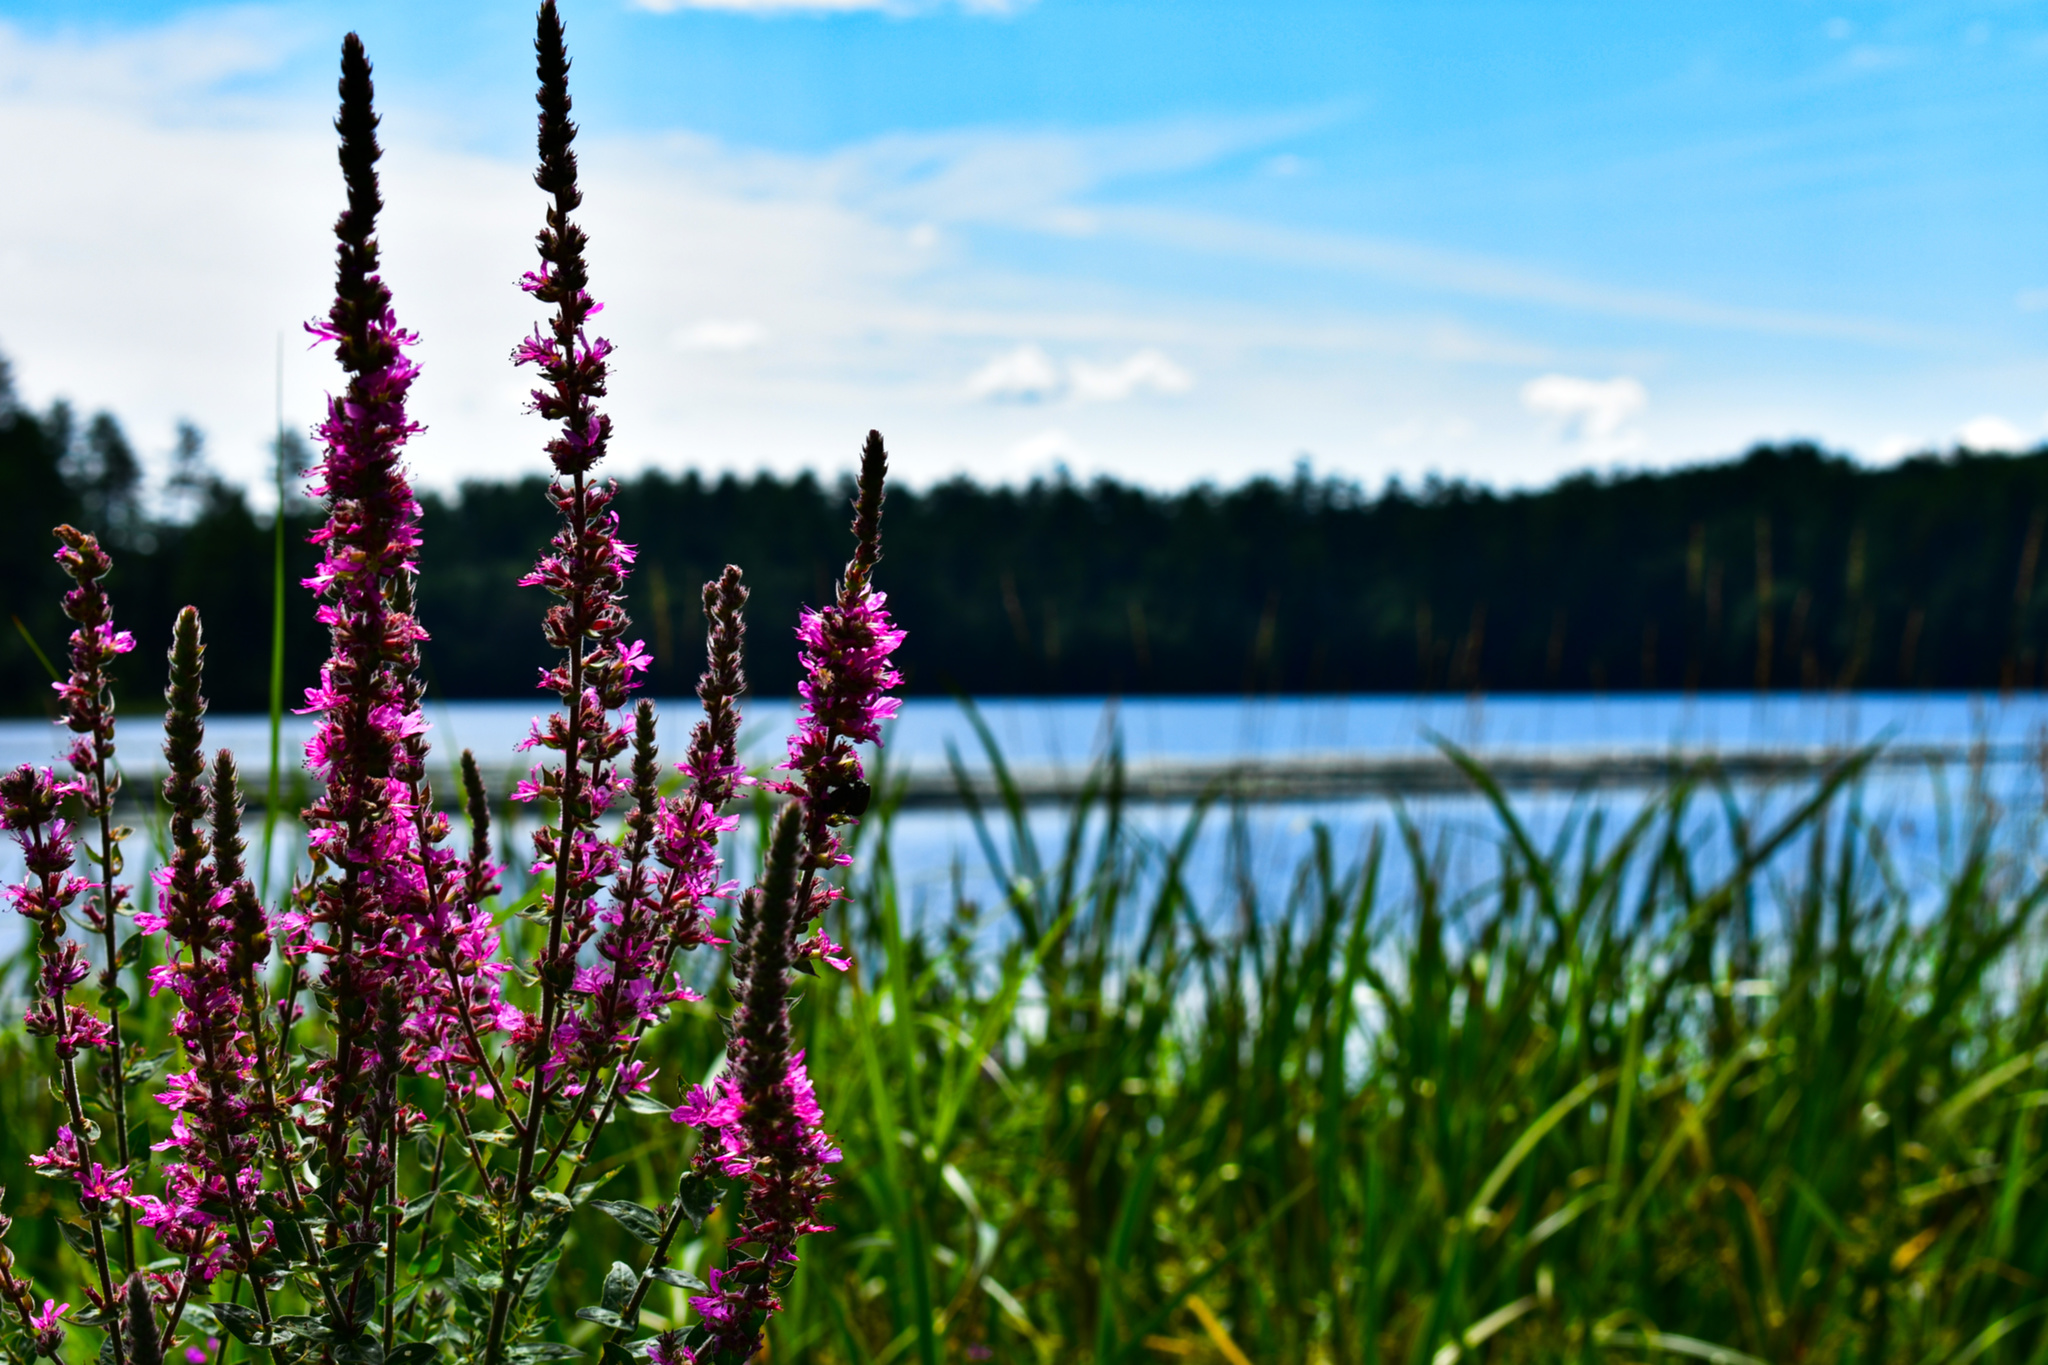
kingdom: Plantae
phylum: Tracheophyta
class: Magnoliopsida
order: Myrtales
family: Lythraceae
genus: Lythrum
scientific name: Lythrum salicaria
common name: Purple loosestrife
